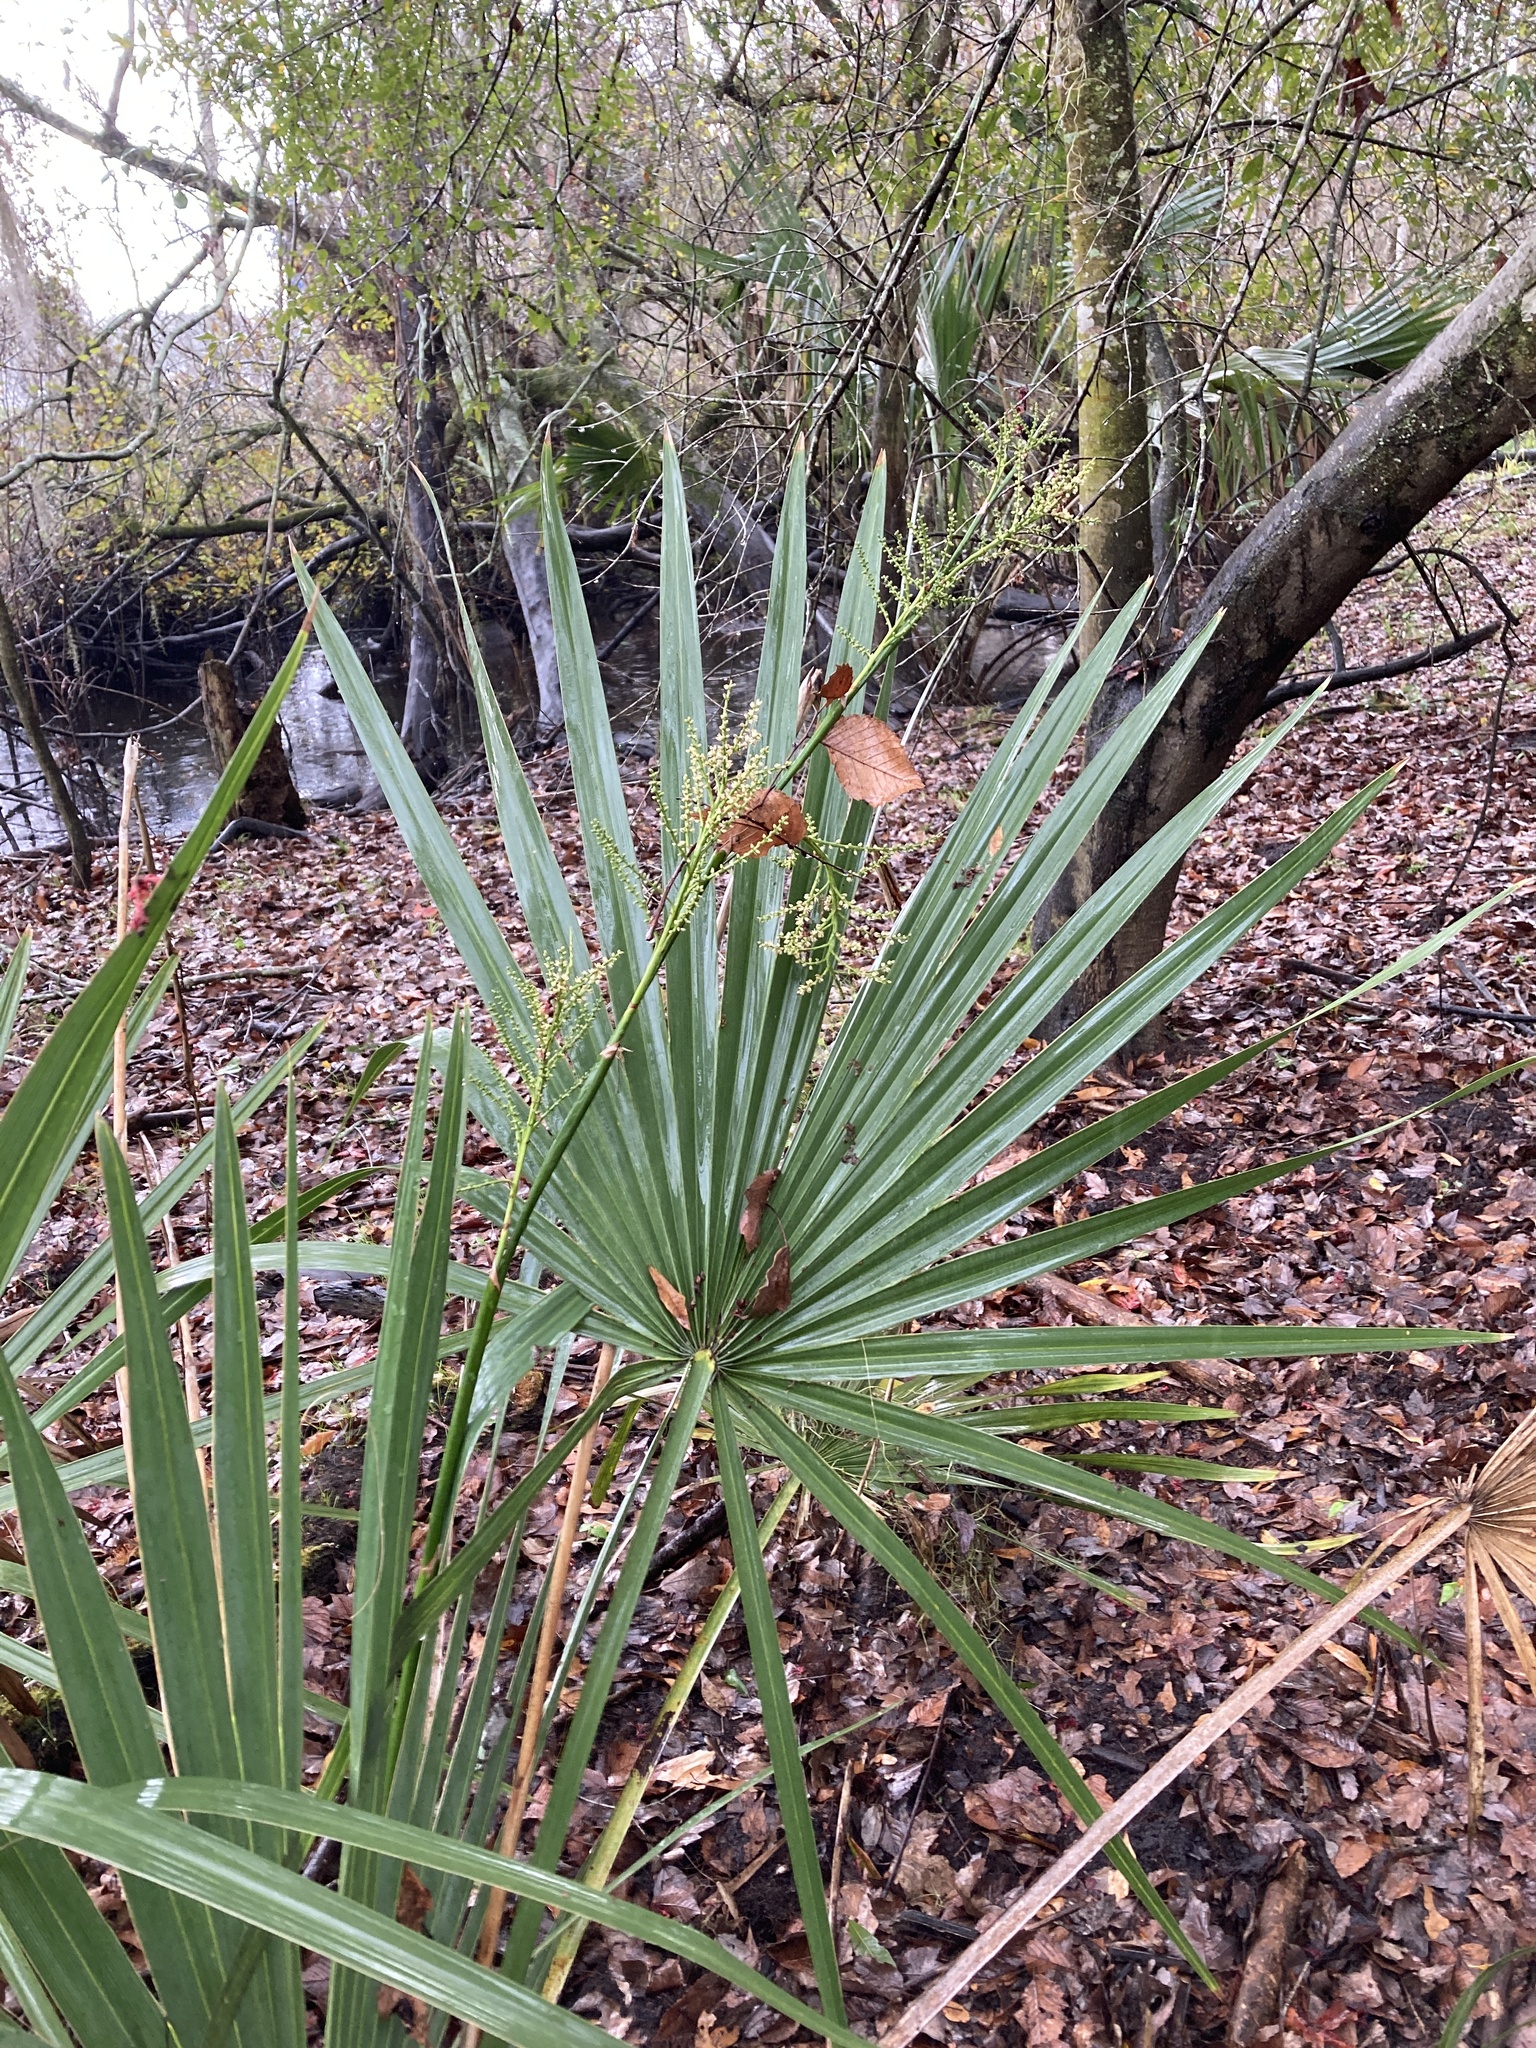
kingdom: Plantae
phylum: Tracheophyta
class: Liliopsida
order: Arecales
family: Arecaceae
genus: Sabal
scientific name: Sabal minor
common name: Dwarf palmetto
